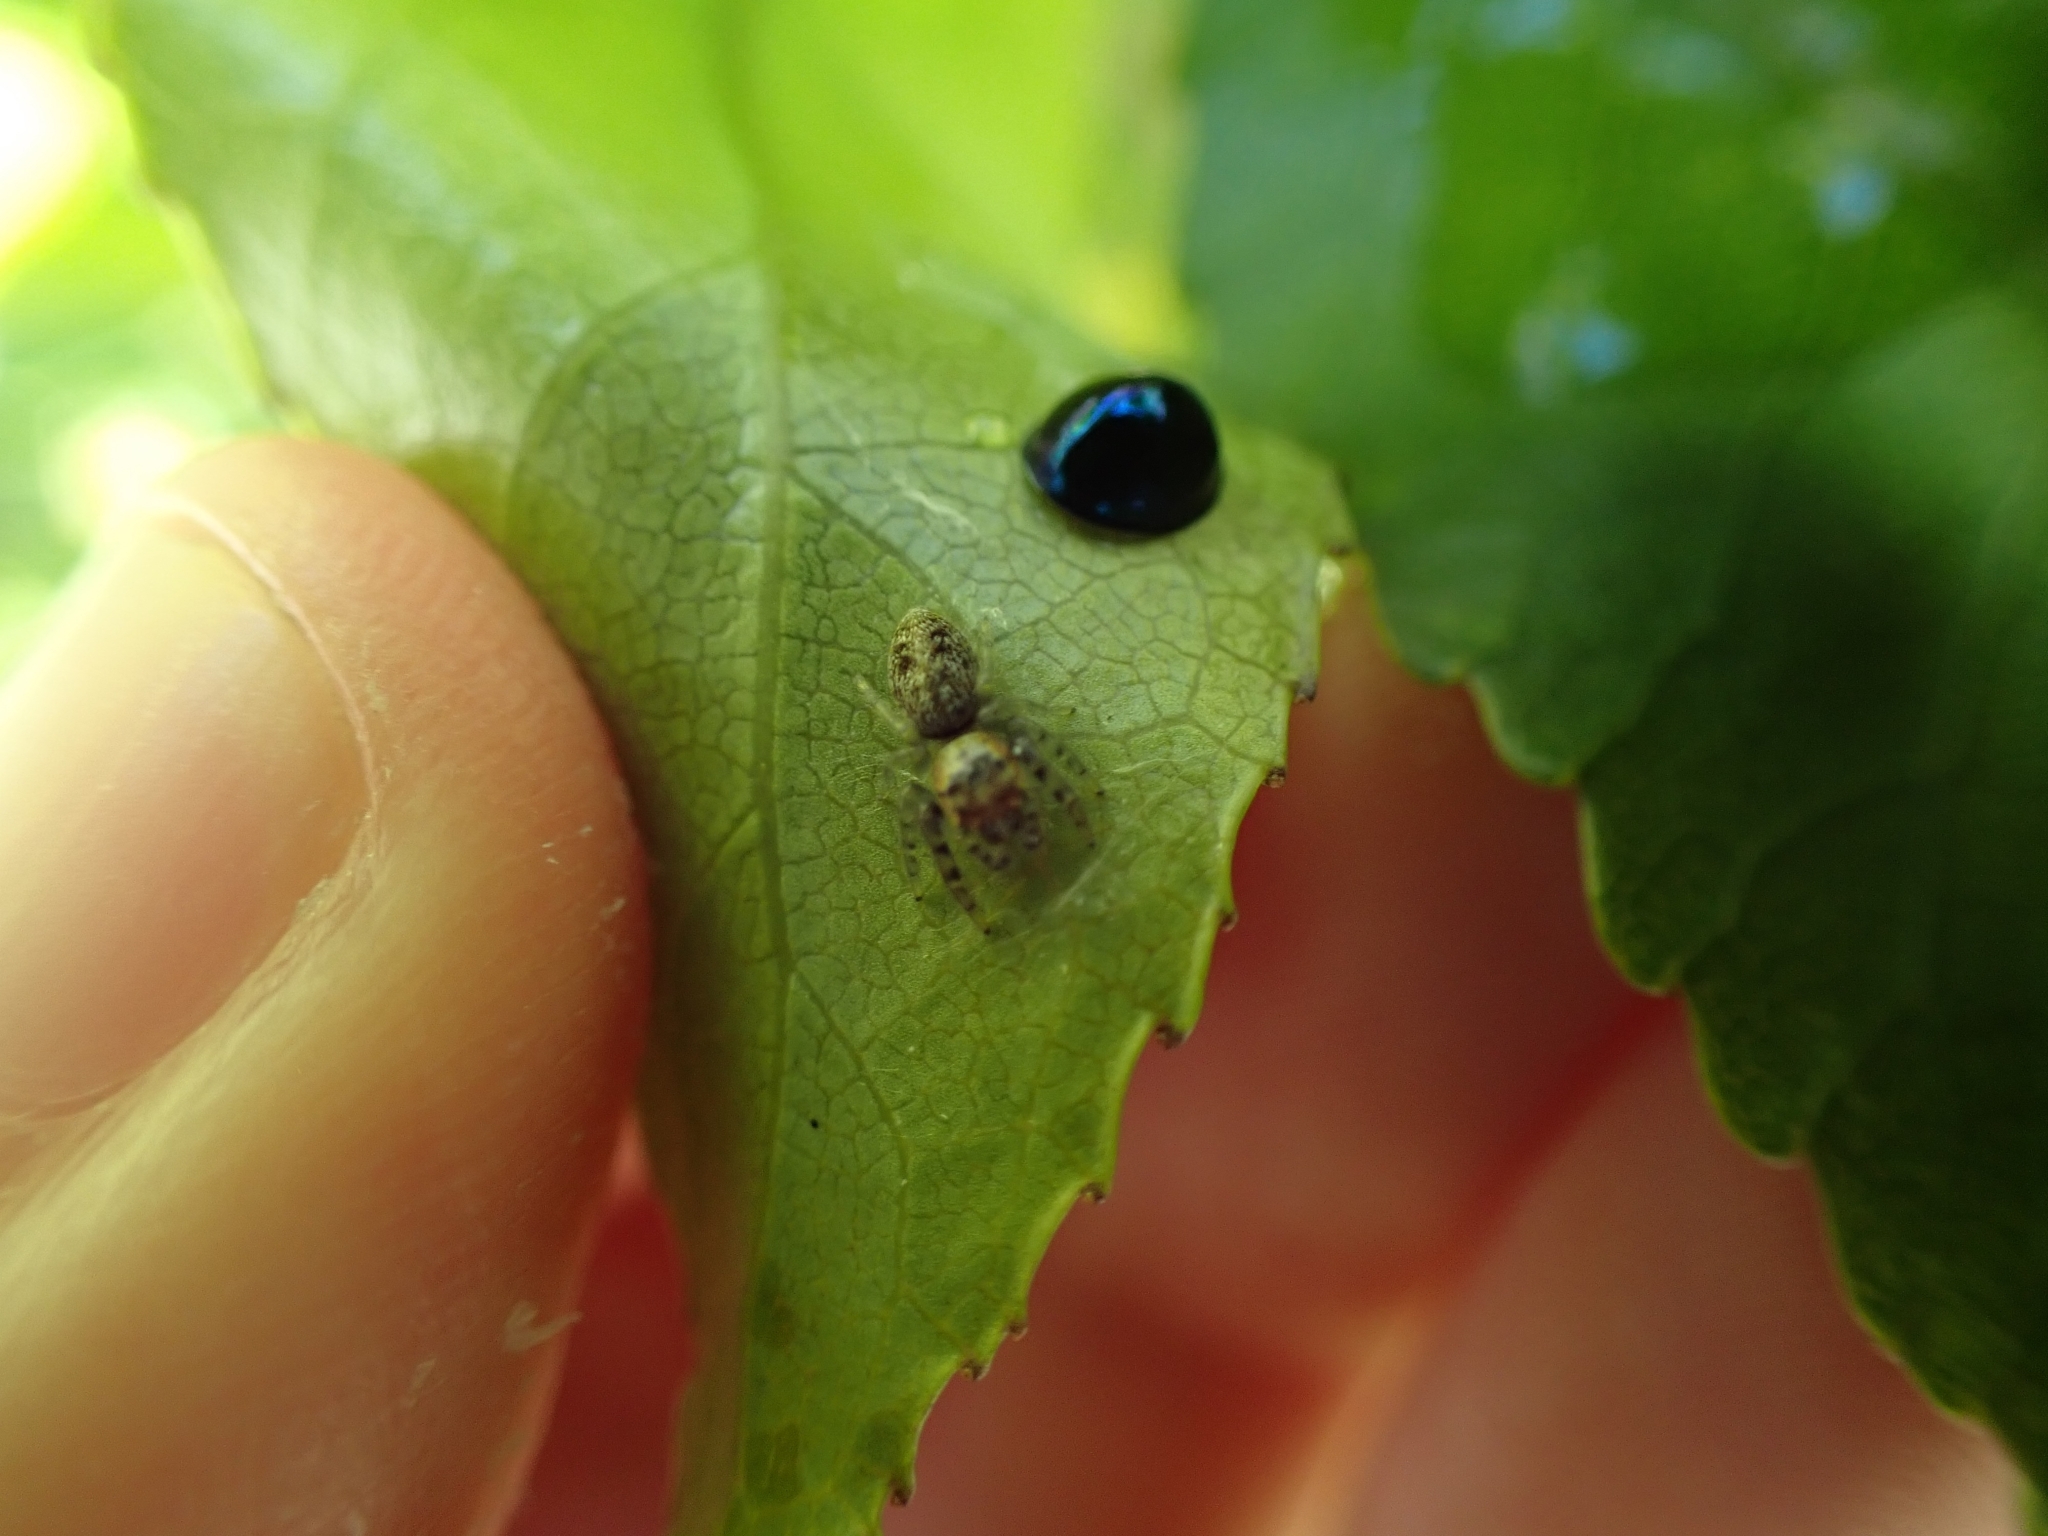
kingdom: Animalia
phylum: Arthropoda
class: Arachnida
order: Araneae
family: Salticidae
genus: Opisthoncus
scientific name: Opisthoncus polyphemus
